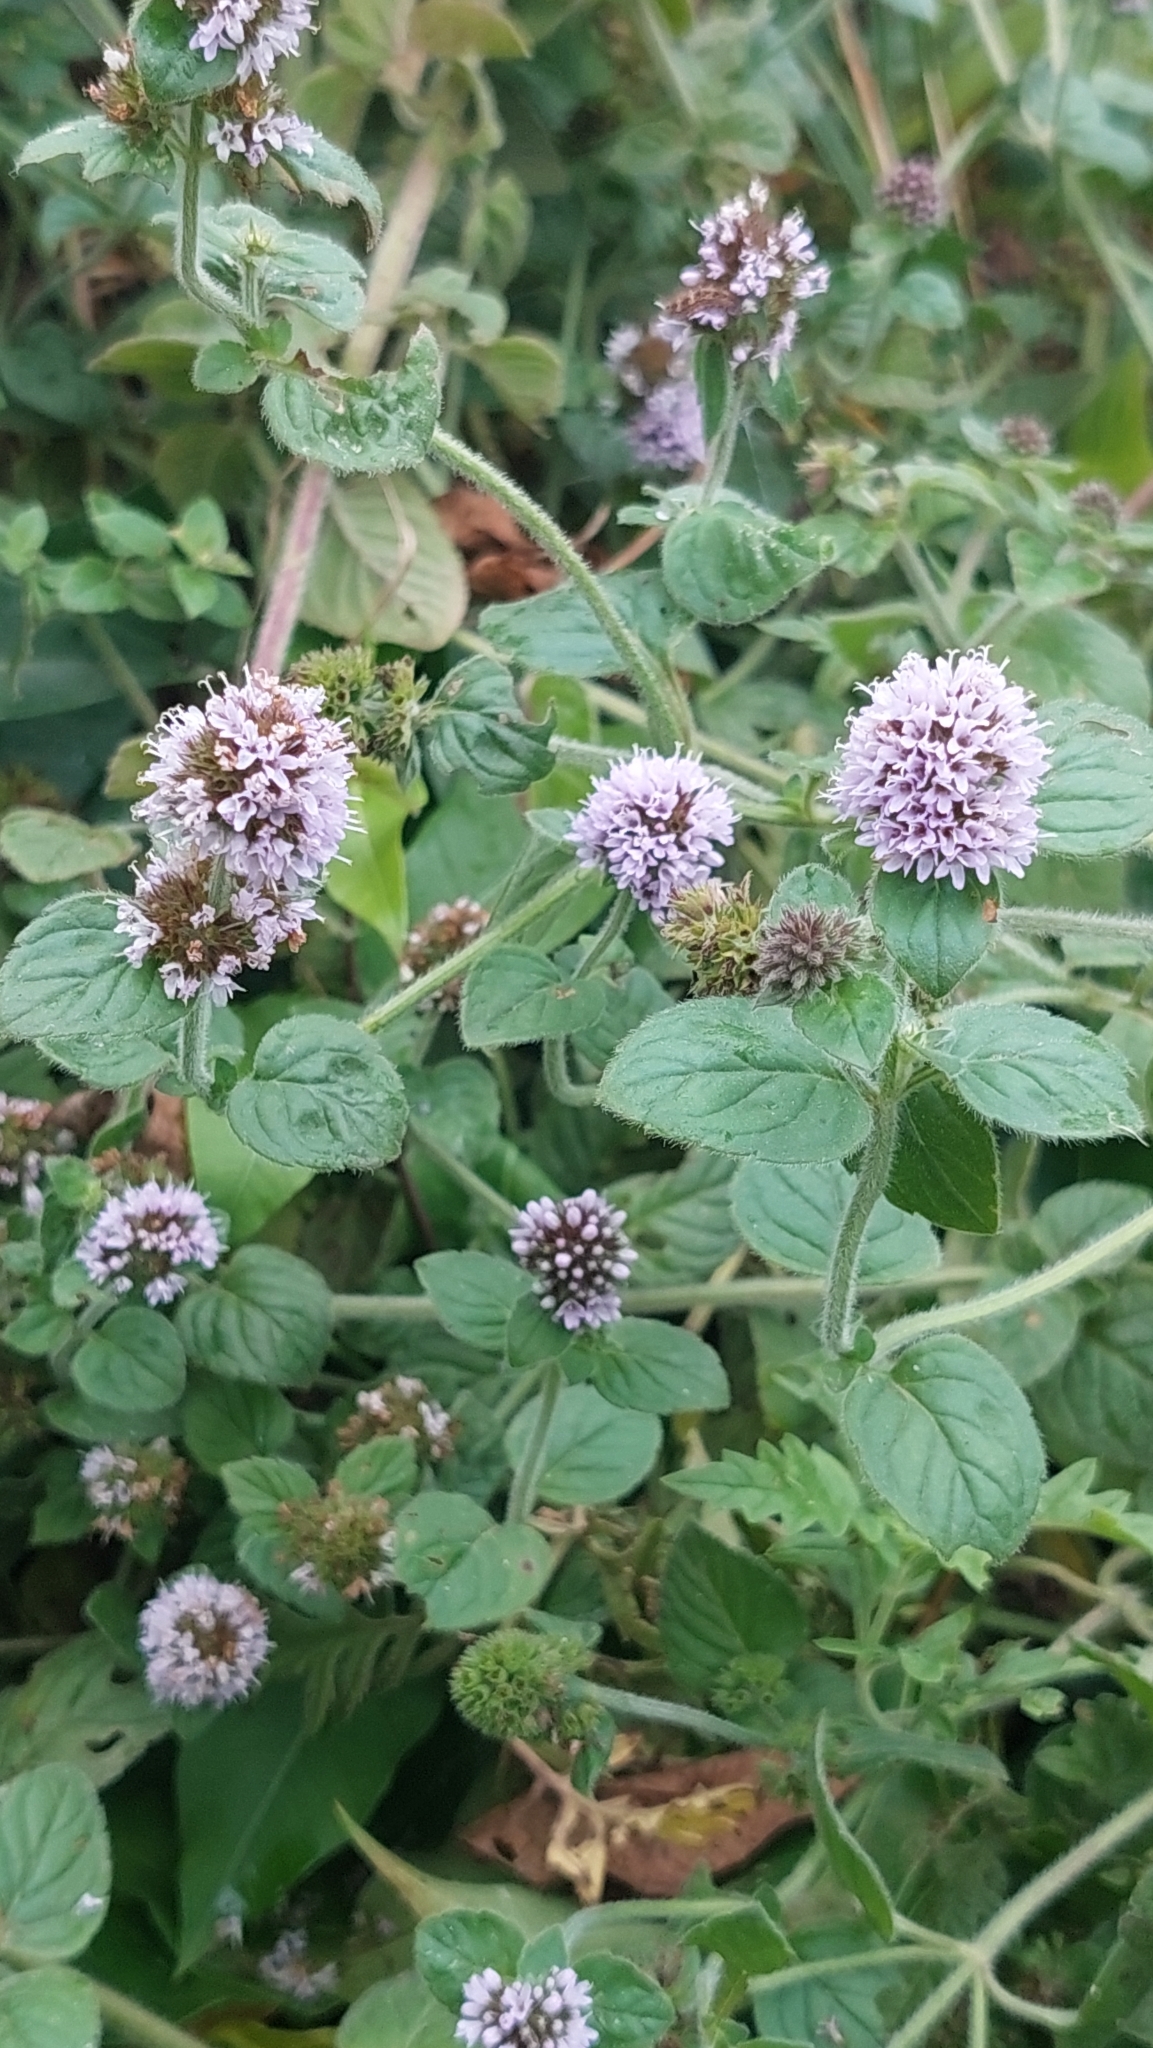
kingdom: Plantae
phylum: Tracheophyta
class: Magnoliopsida
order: Lamiales
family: Lamiaceae
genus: Mentha
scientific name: Mentha aquatica
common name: Water mint
